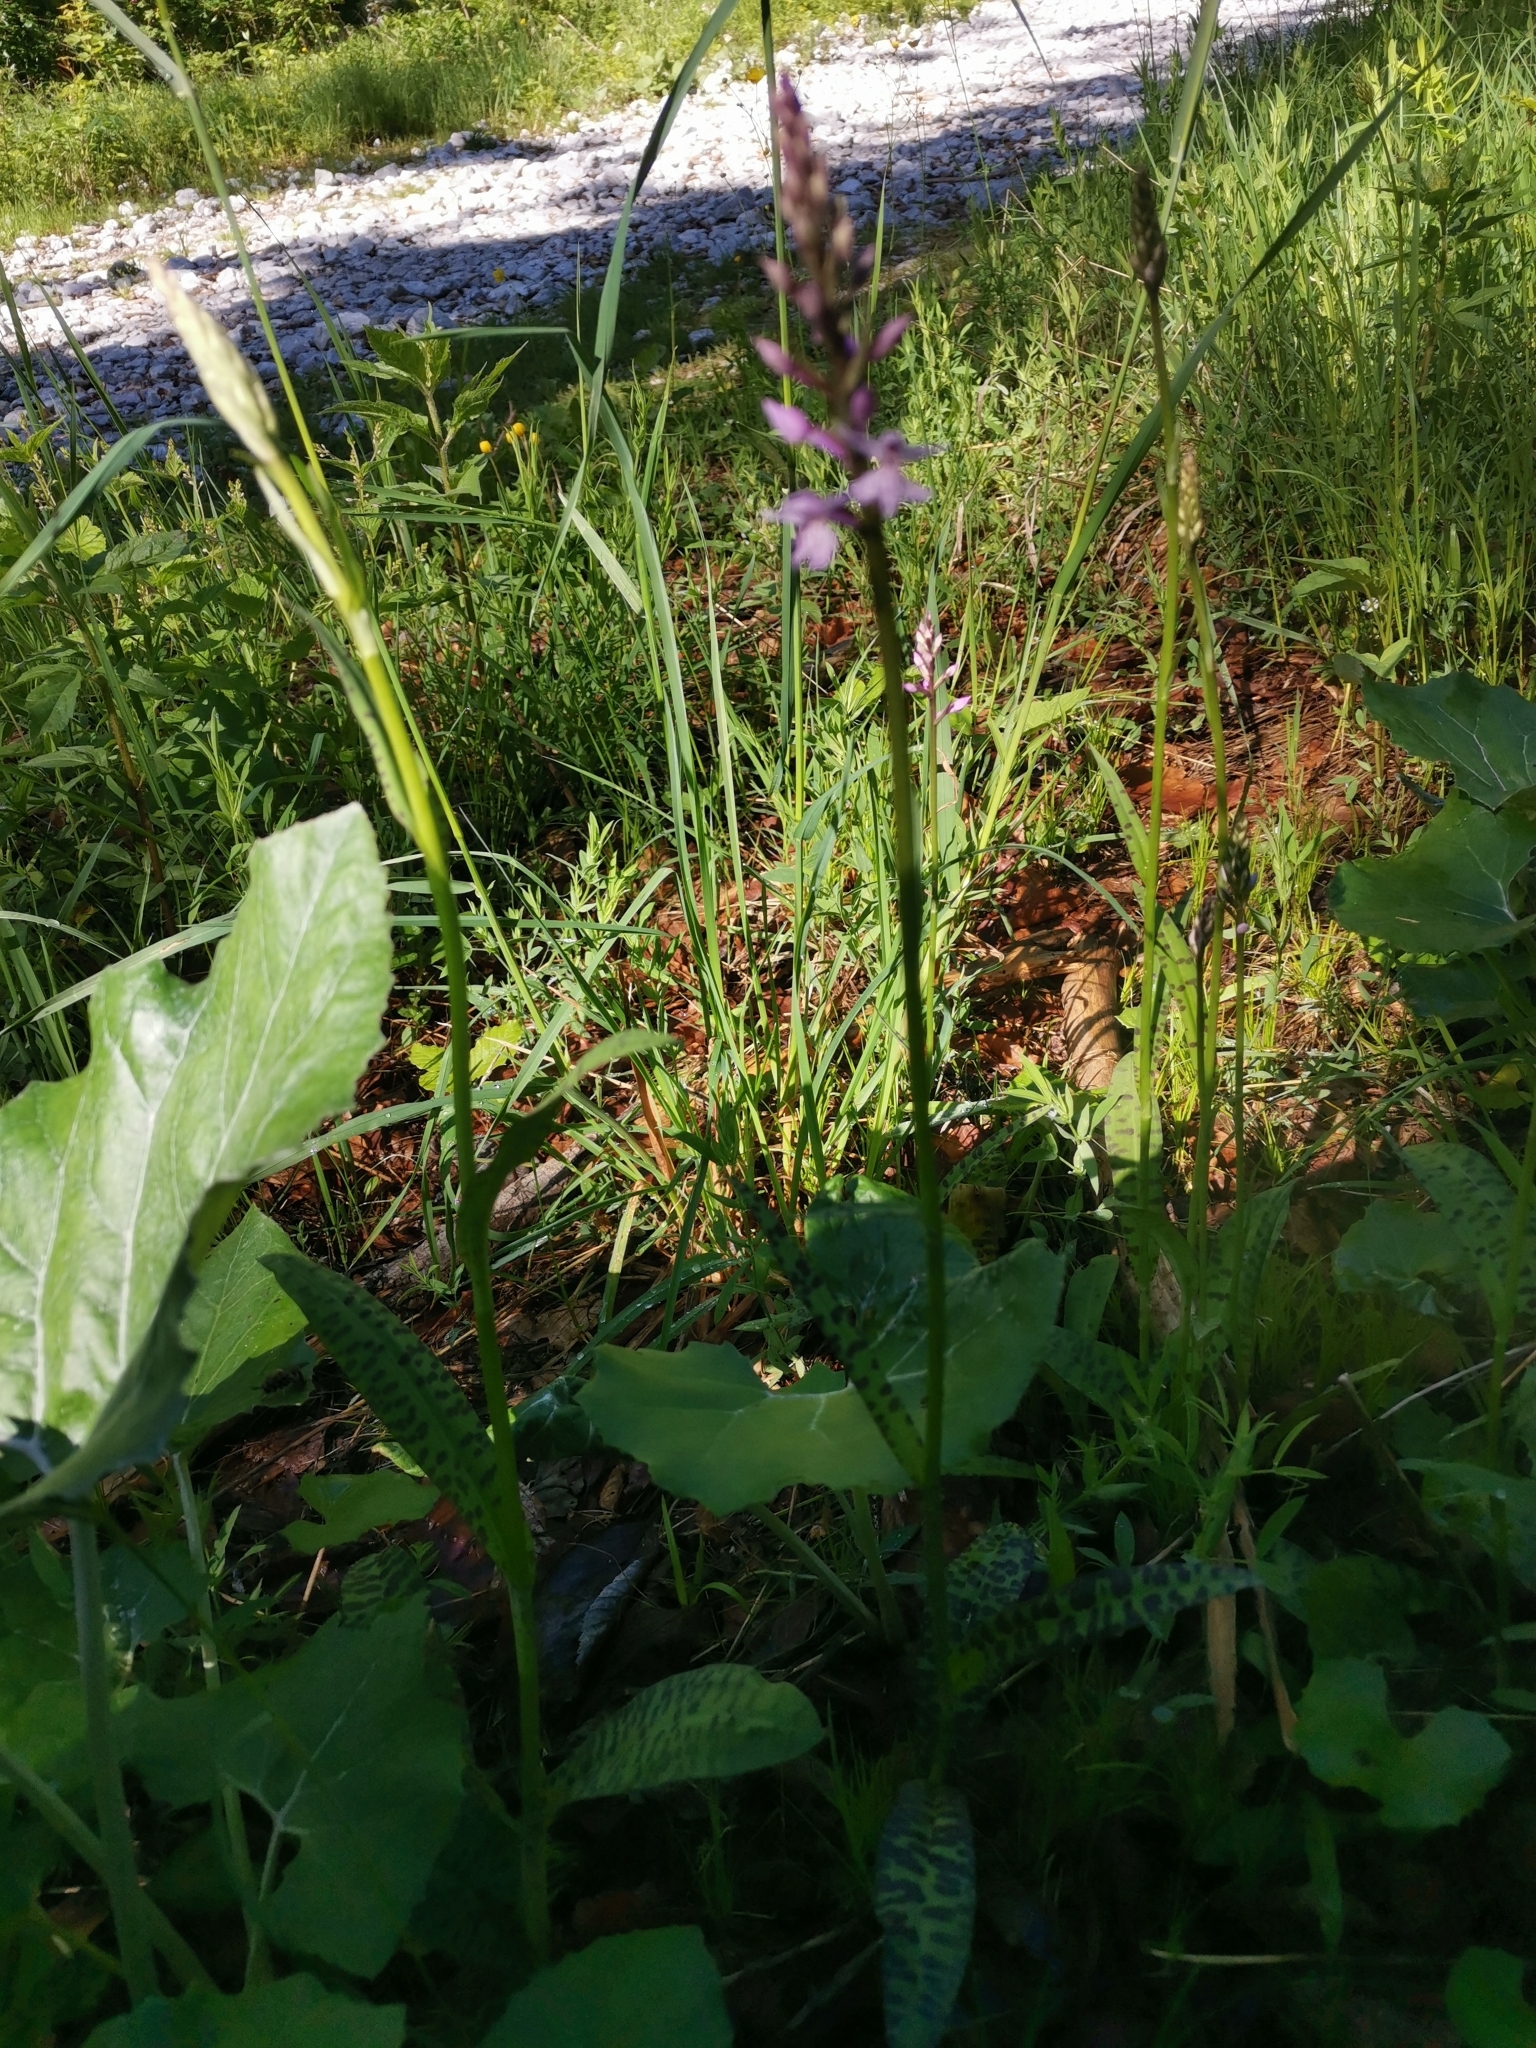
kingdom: Plantae
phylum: Tracheophyta
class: Liliopsida
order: Asparagales
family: Orchidaceae
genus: Dactylorhiza
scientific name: Dactylorhiza maculata
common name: Heath spotted-orchid
